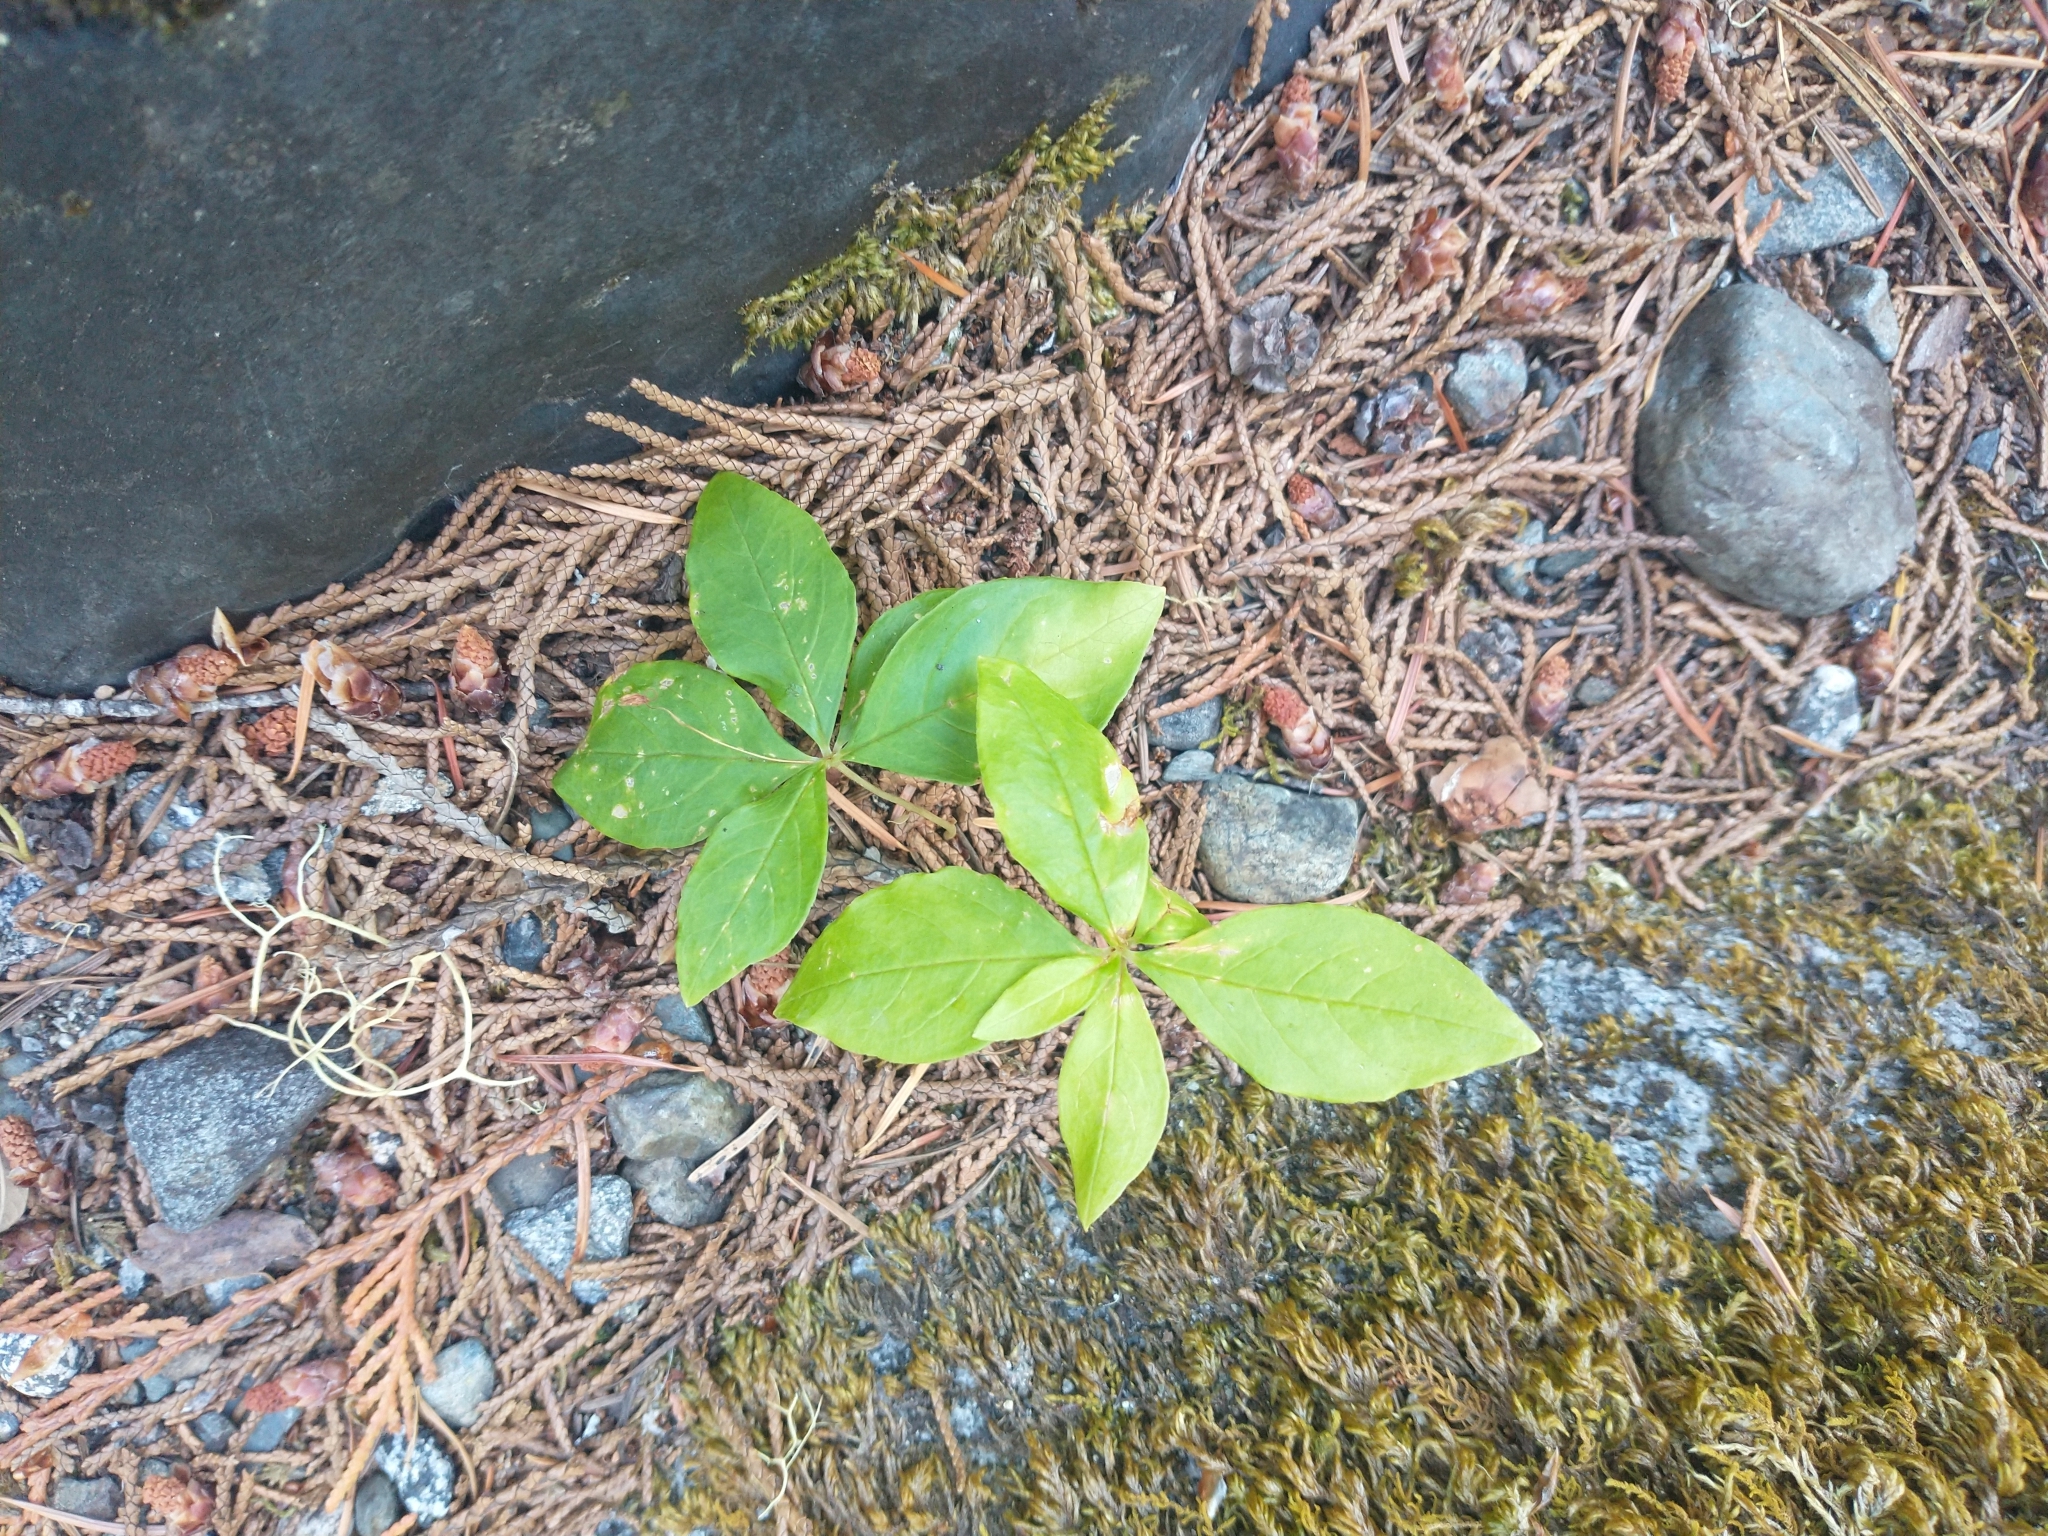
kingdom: Plantae
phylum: Tracheophyta
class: Magnoliopsida
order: Ericales
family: Primulaceae
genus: Lysimachia
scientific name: Lysimachia latifolia
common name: Pacific starflower
